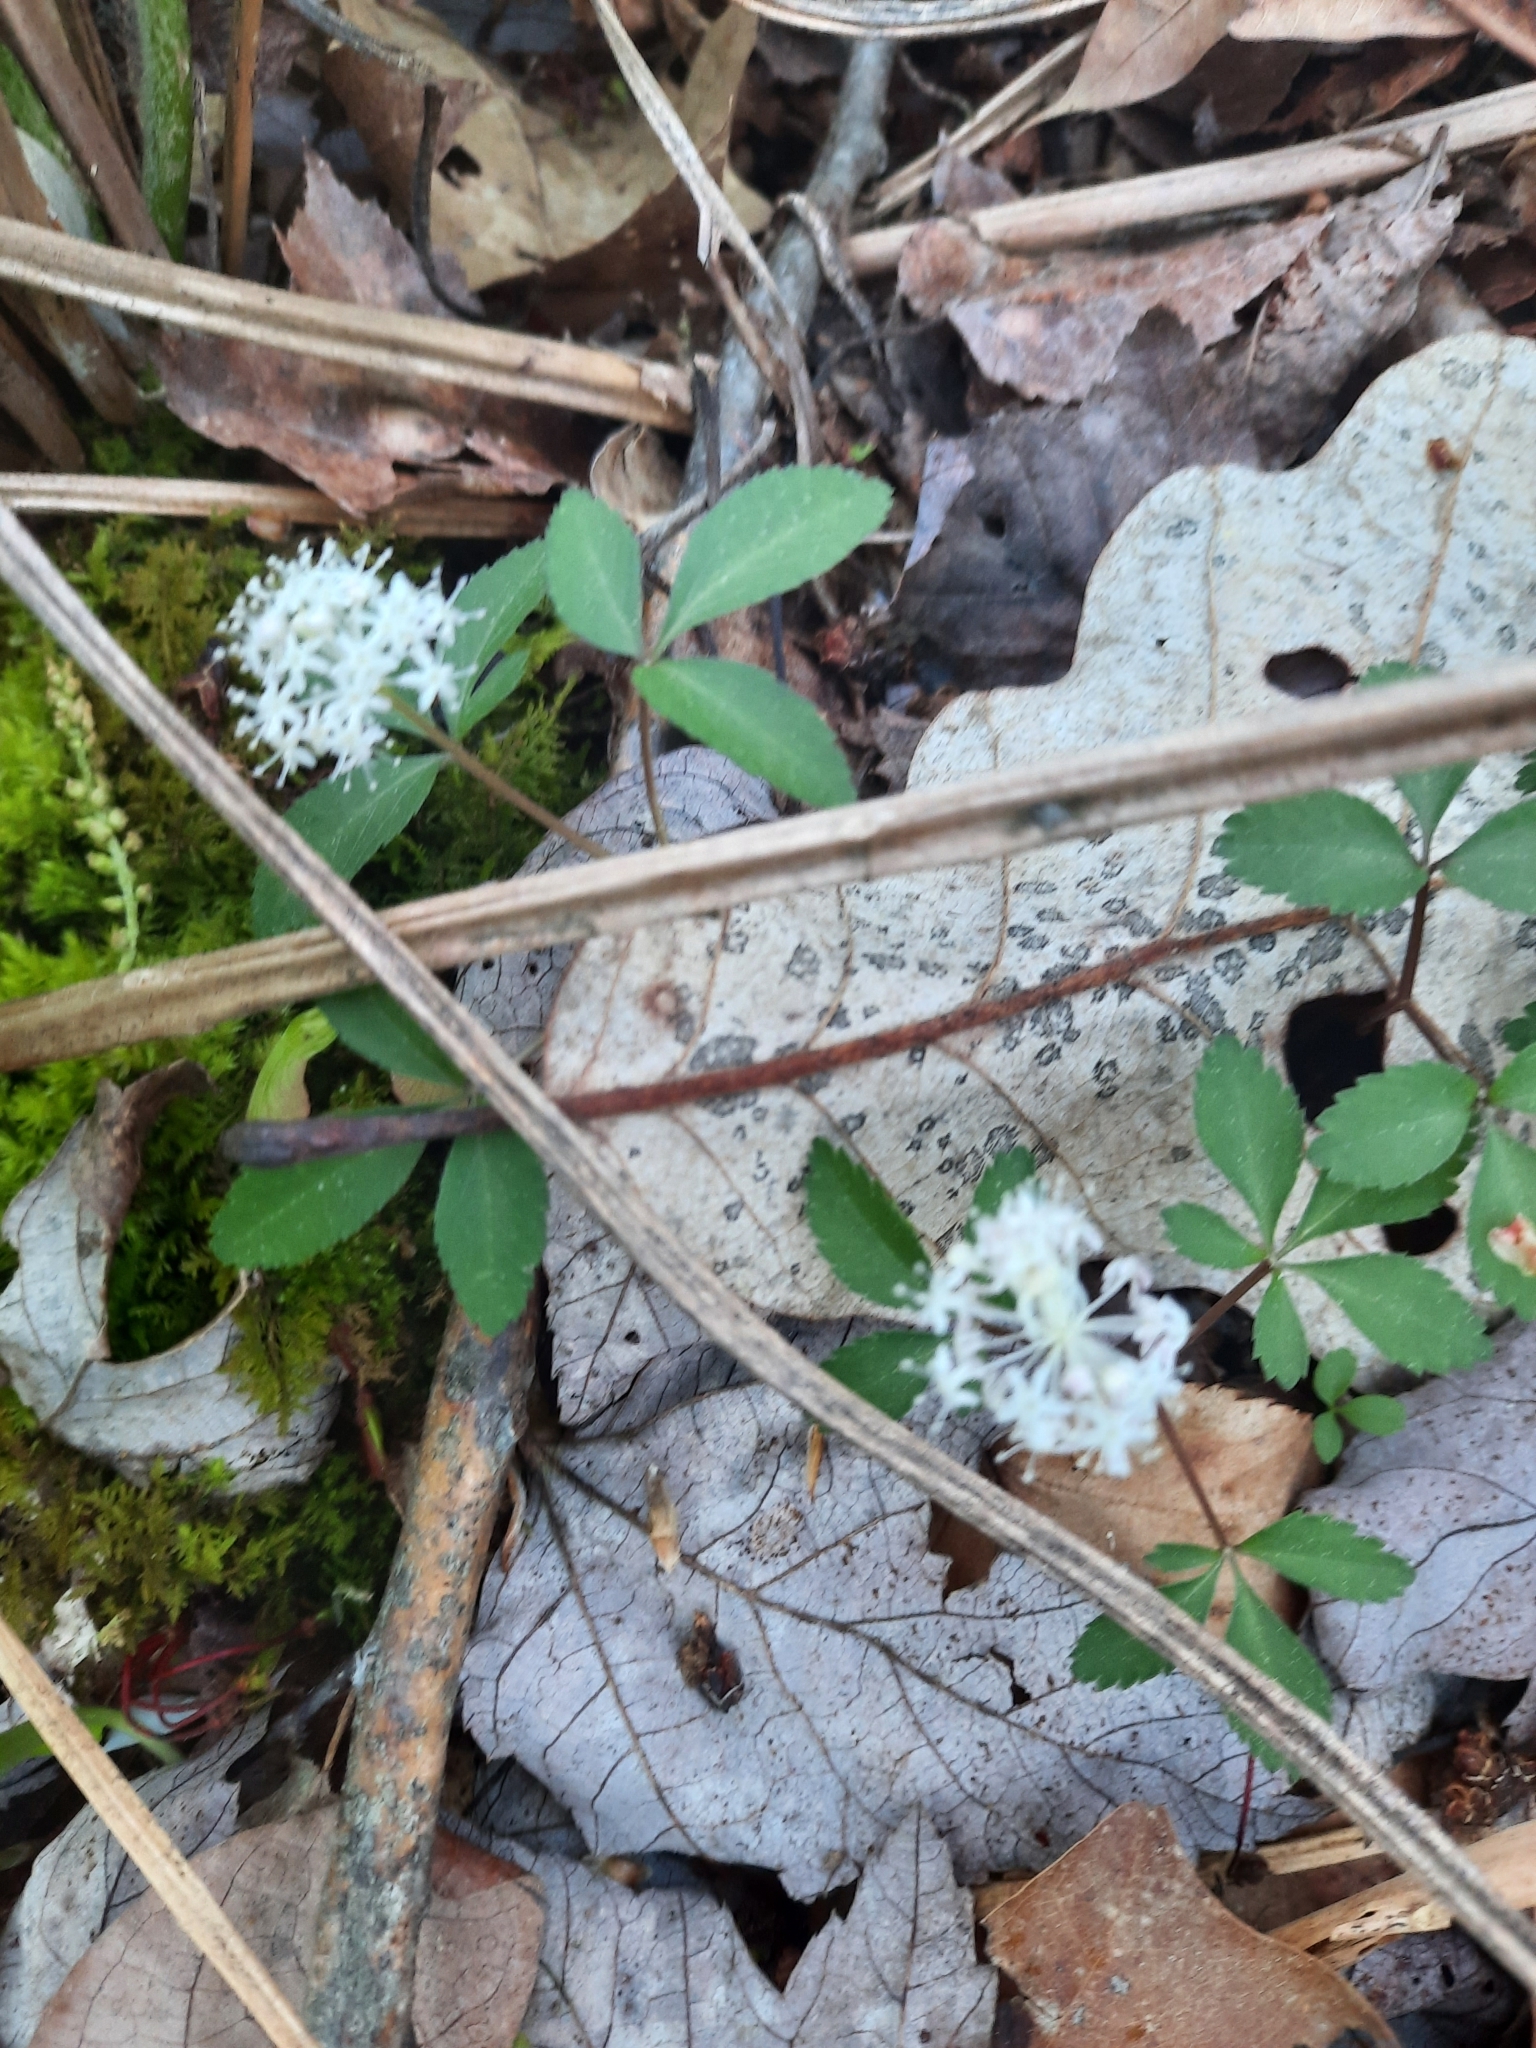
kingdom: Plantae
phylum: Tracheophyta
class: Magnoliopsida
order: Apiales
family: Araliaceae
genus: Panax
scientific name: Panax trifolius
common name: Dwarf ginseng
